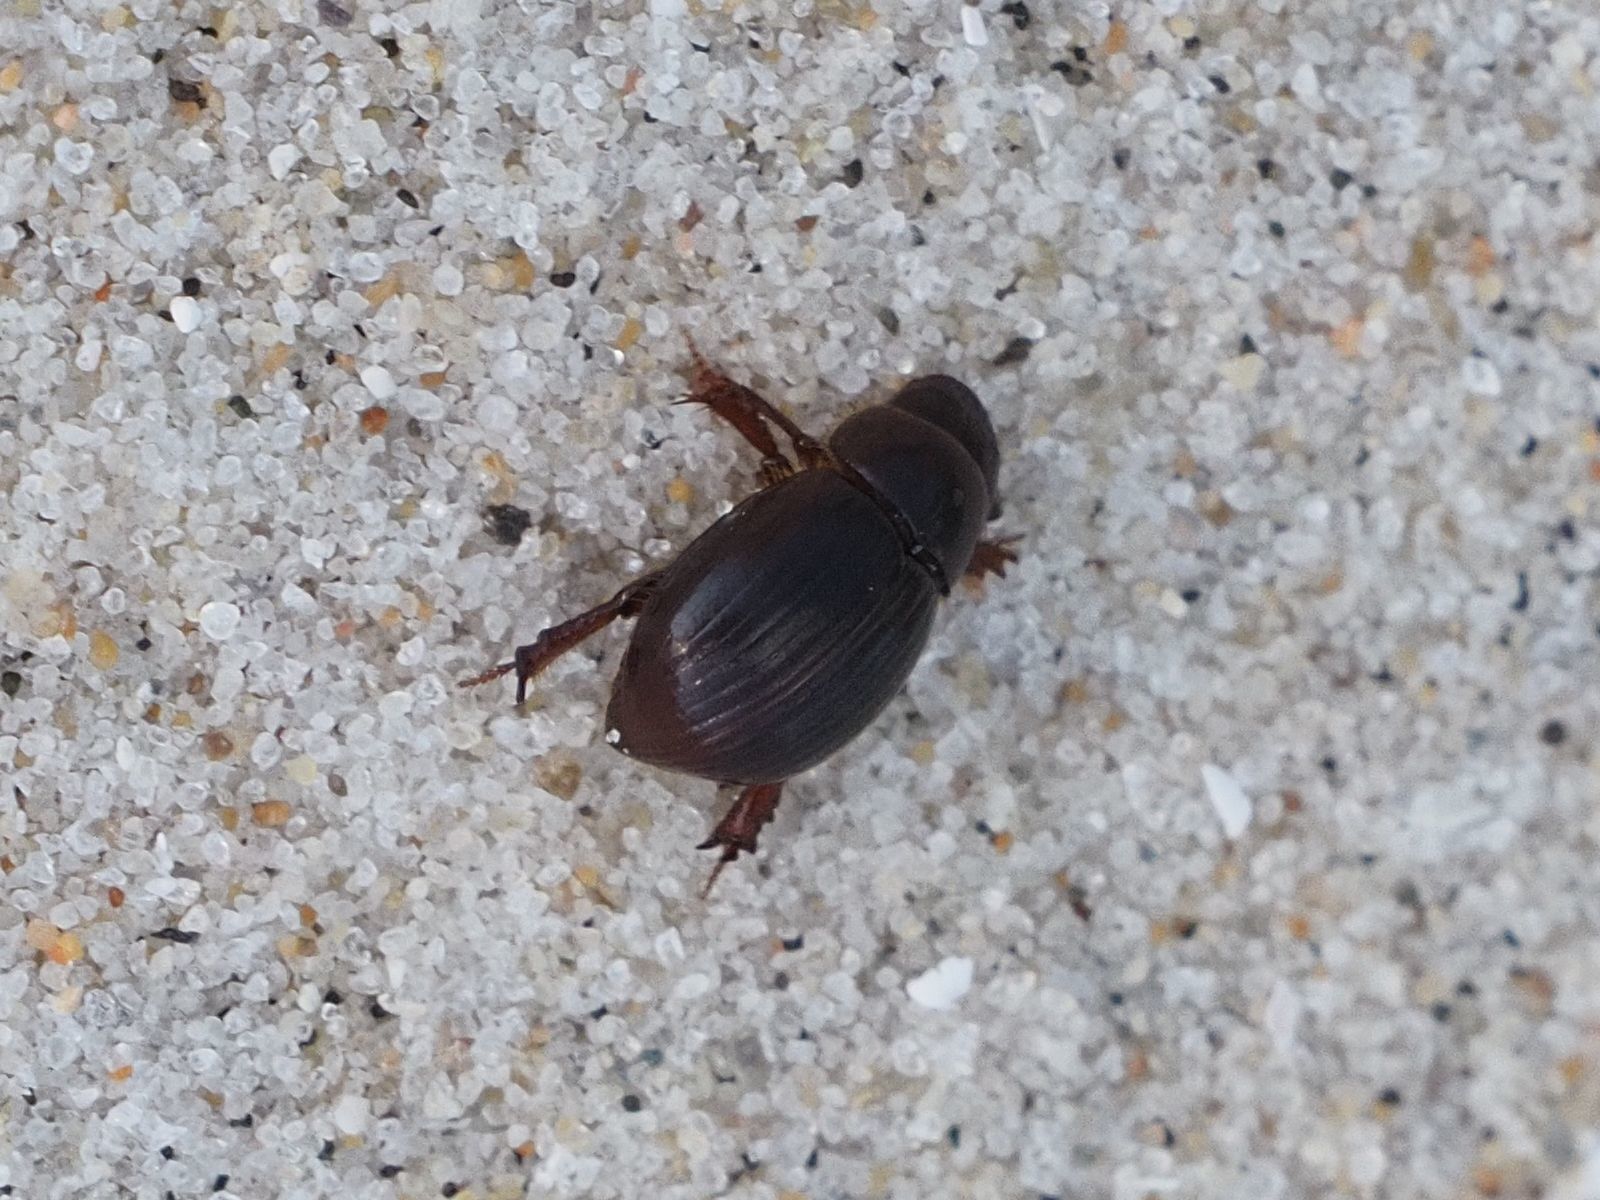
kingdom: Animalia
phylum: Arthropoda
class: Insecta
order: Coleoptera
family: Scarabaeidae
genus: Aegialia
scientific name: Aegialia arenaria
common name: Dune sand scarab beetle
